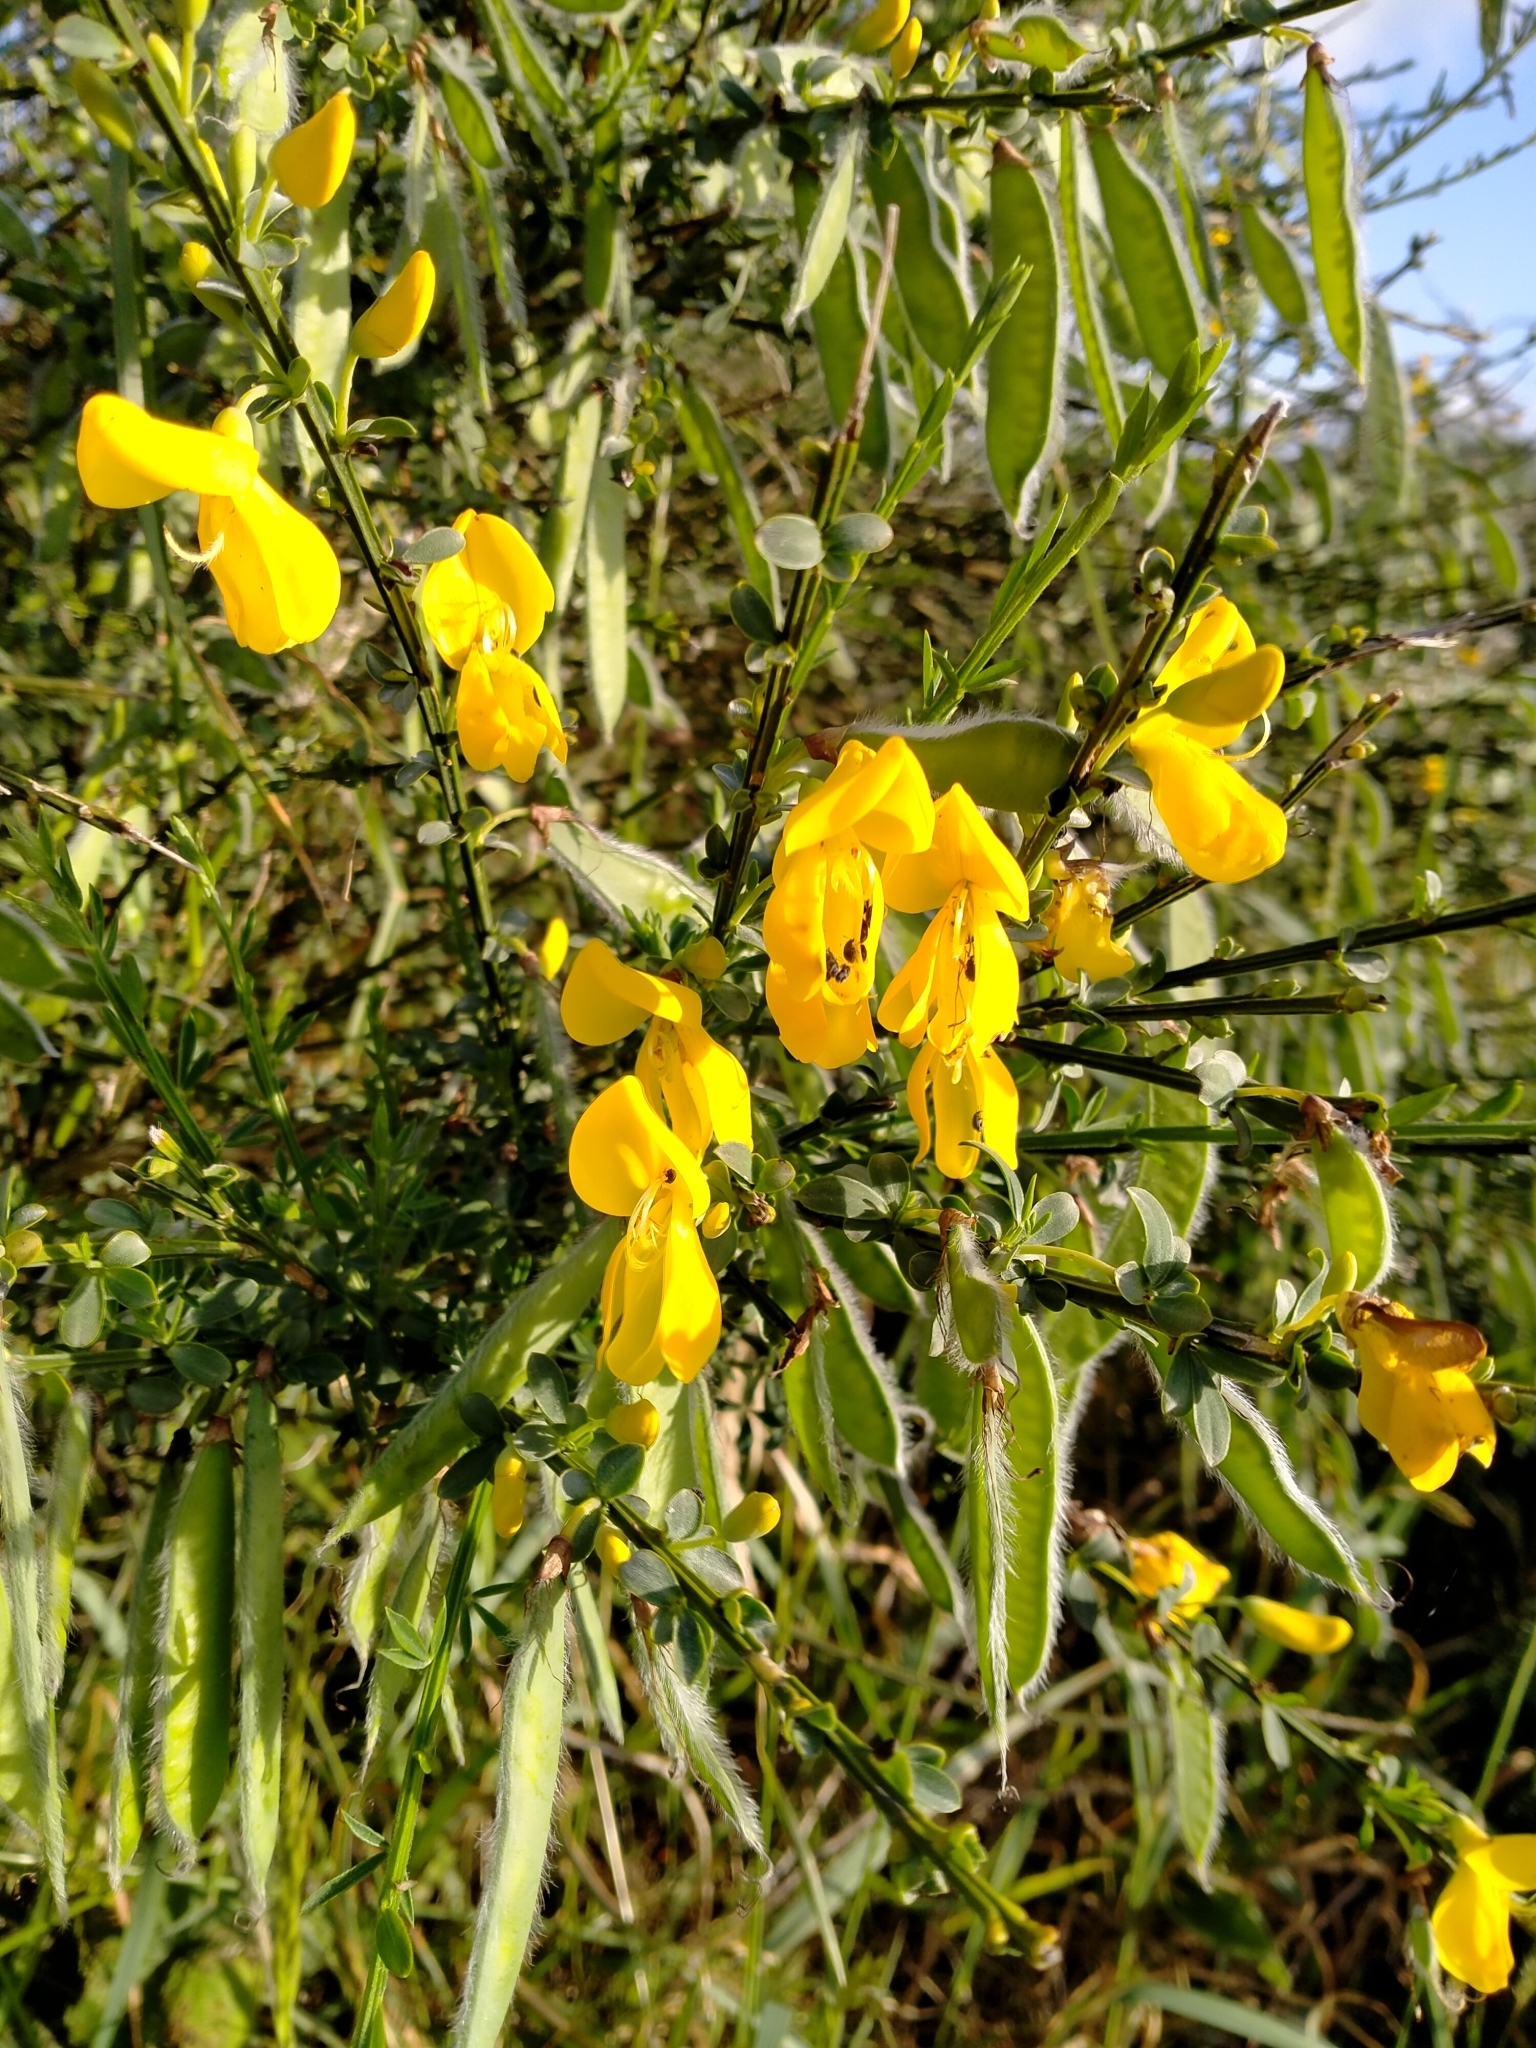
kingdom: Plantae
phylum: Tracheophyta
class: Magnoliopsida
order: Fabales
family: Fabaceae
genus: Cytisus
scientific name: Cytisus scoparius
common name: Scotch broom
